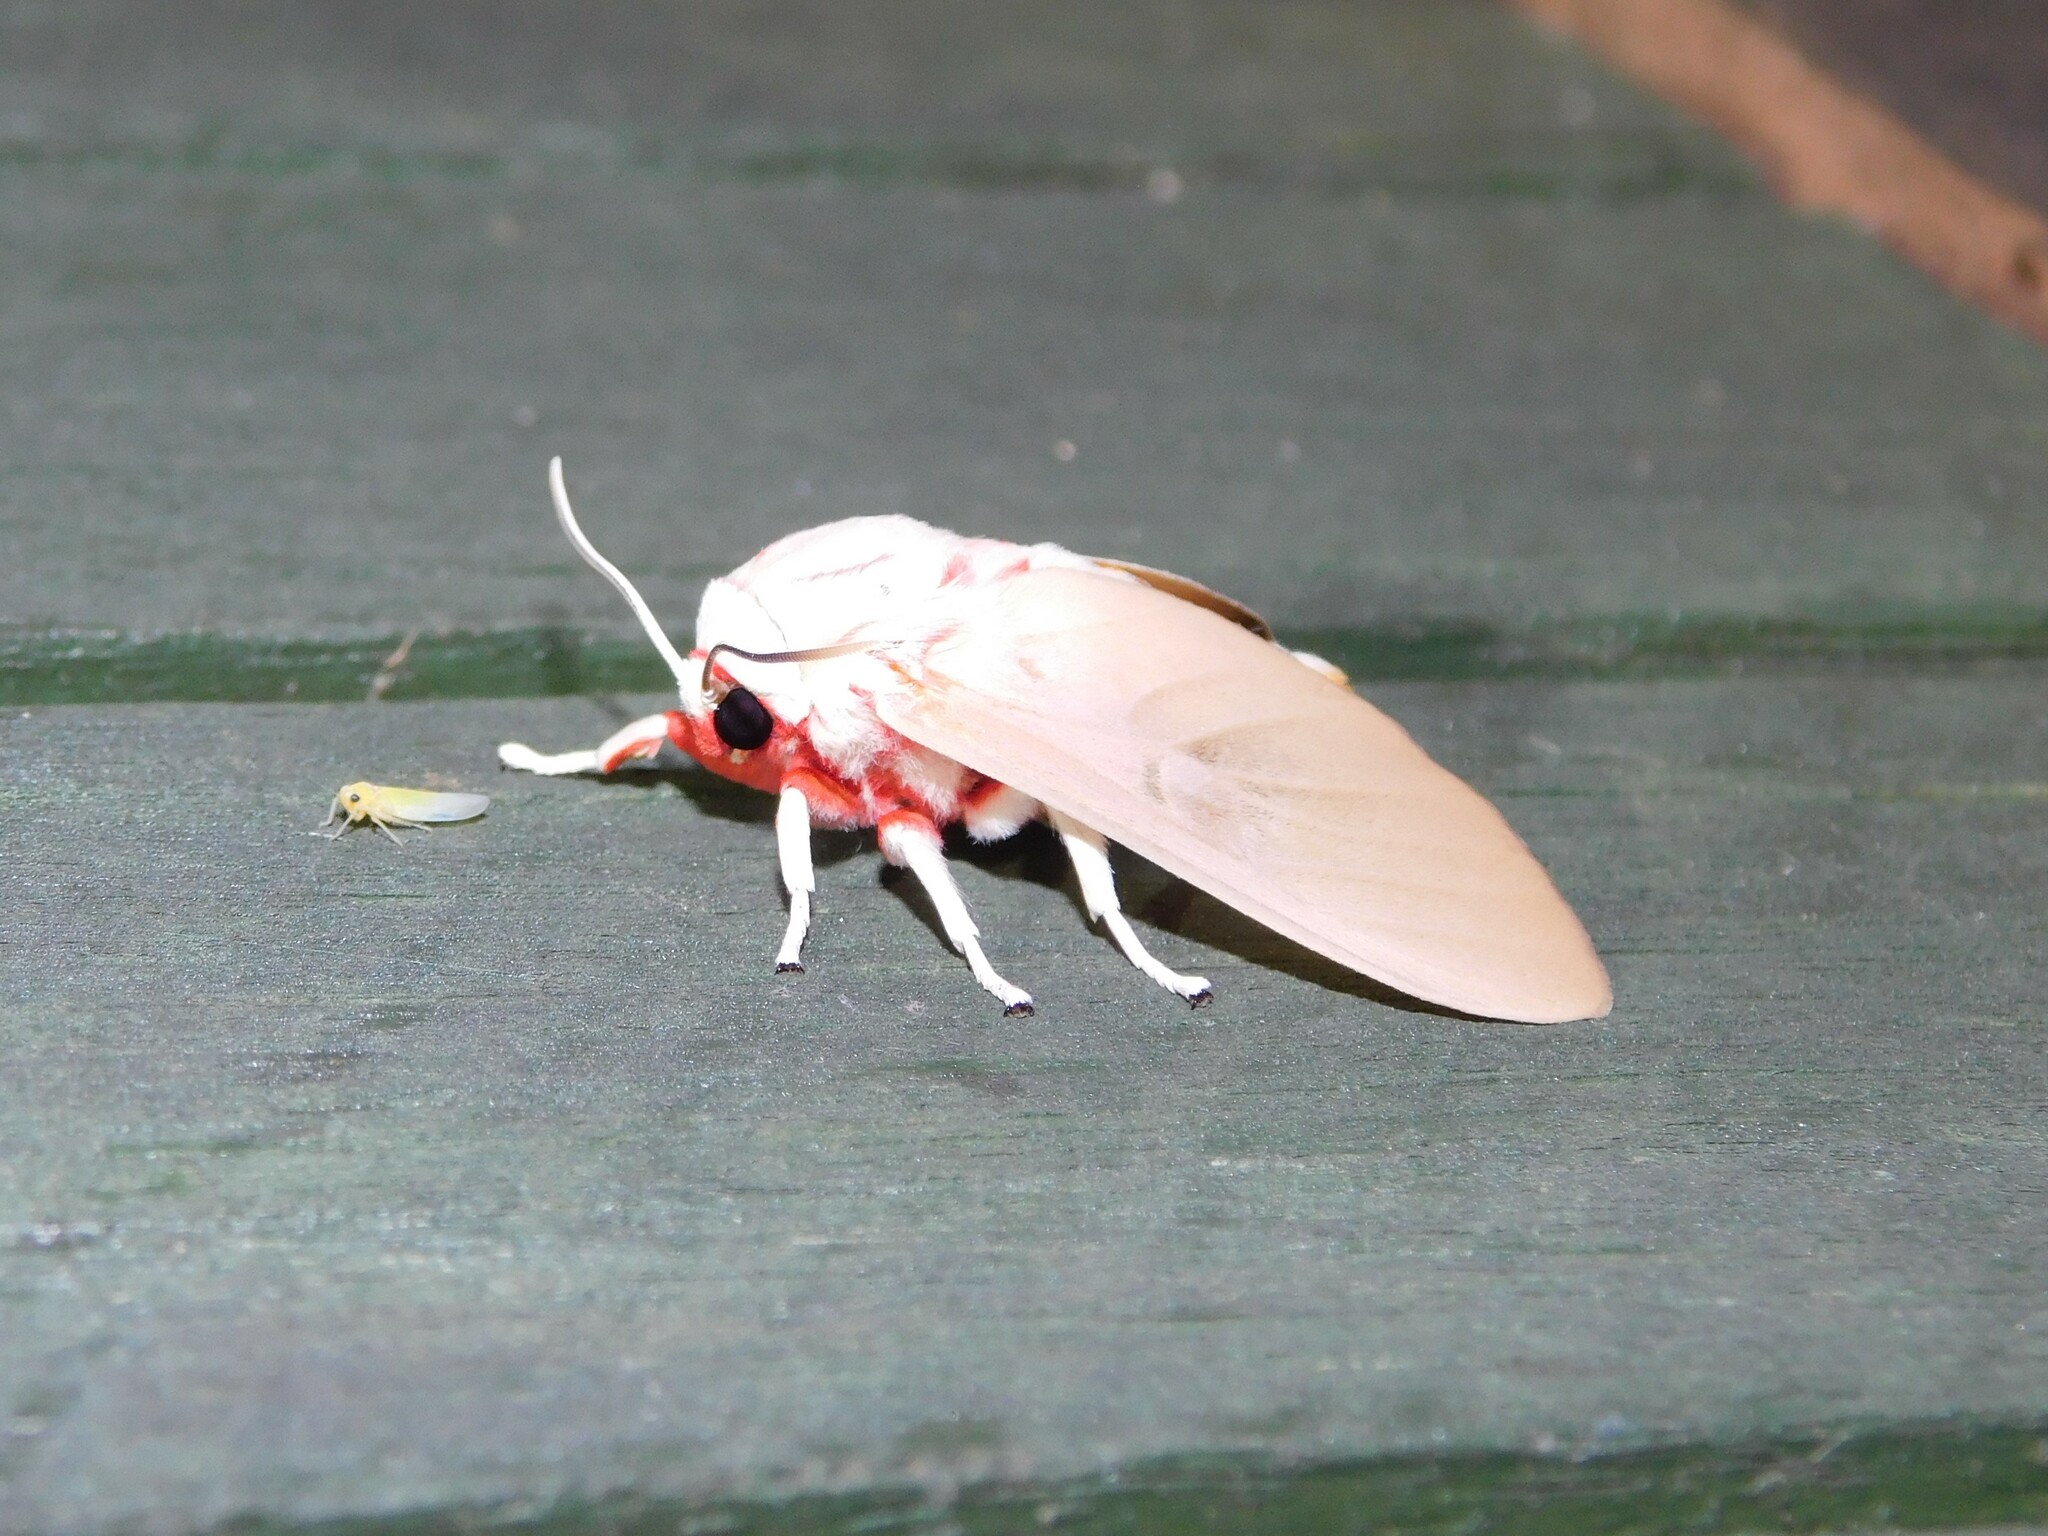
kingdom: Animalia
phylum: Arthropoda
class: Insecta
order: Lepidoptera
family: Erebidae
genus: Balacra
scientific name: Balacra herona
